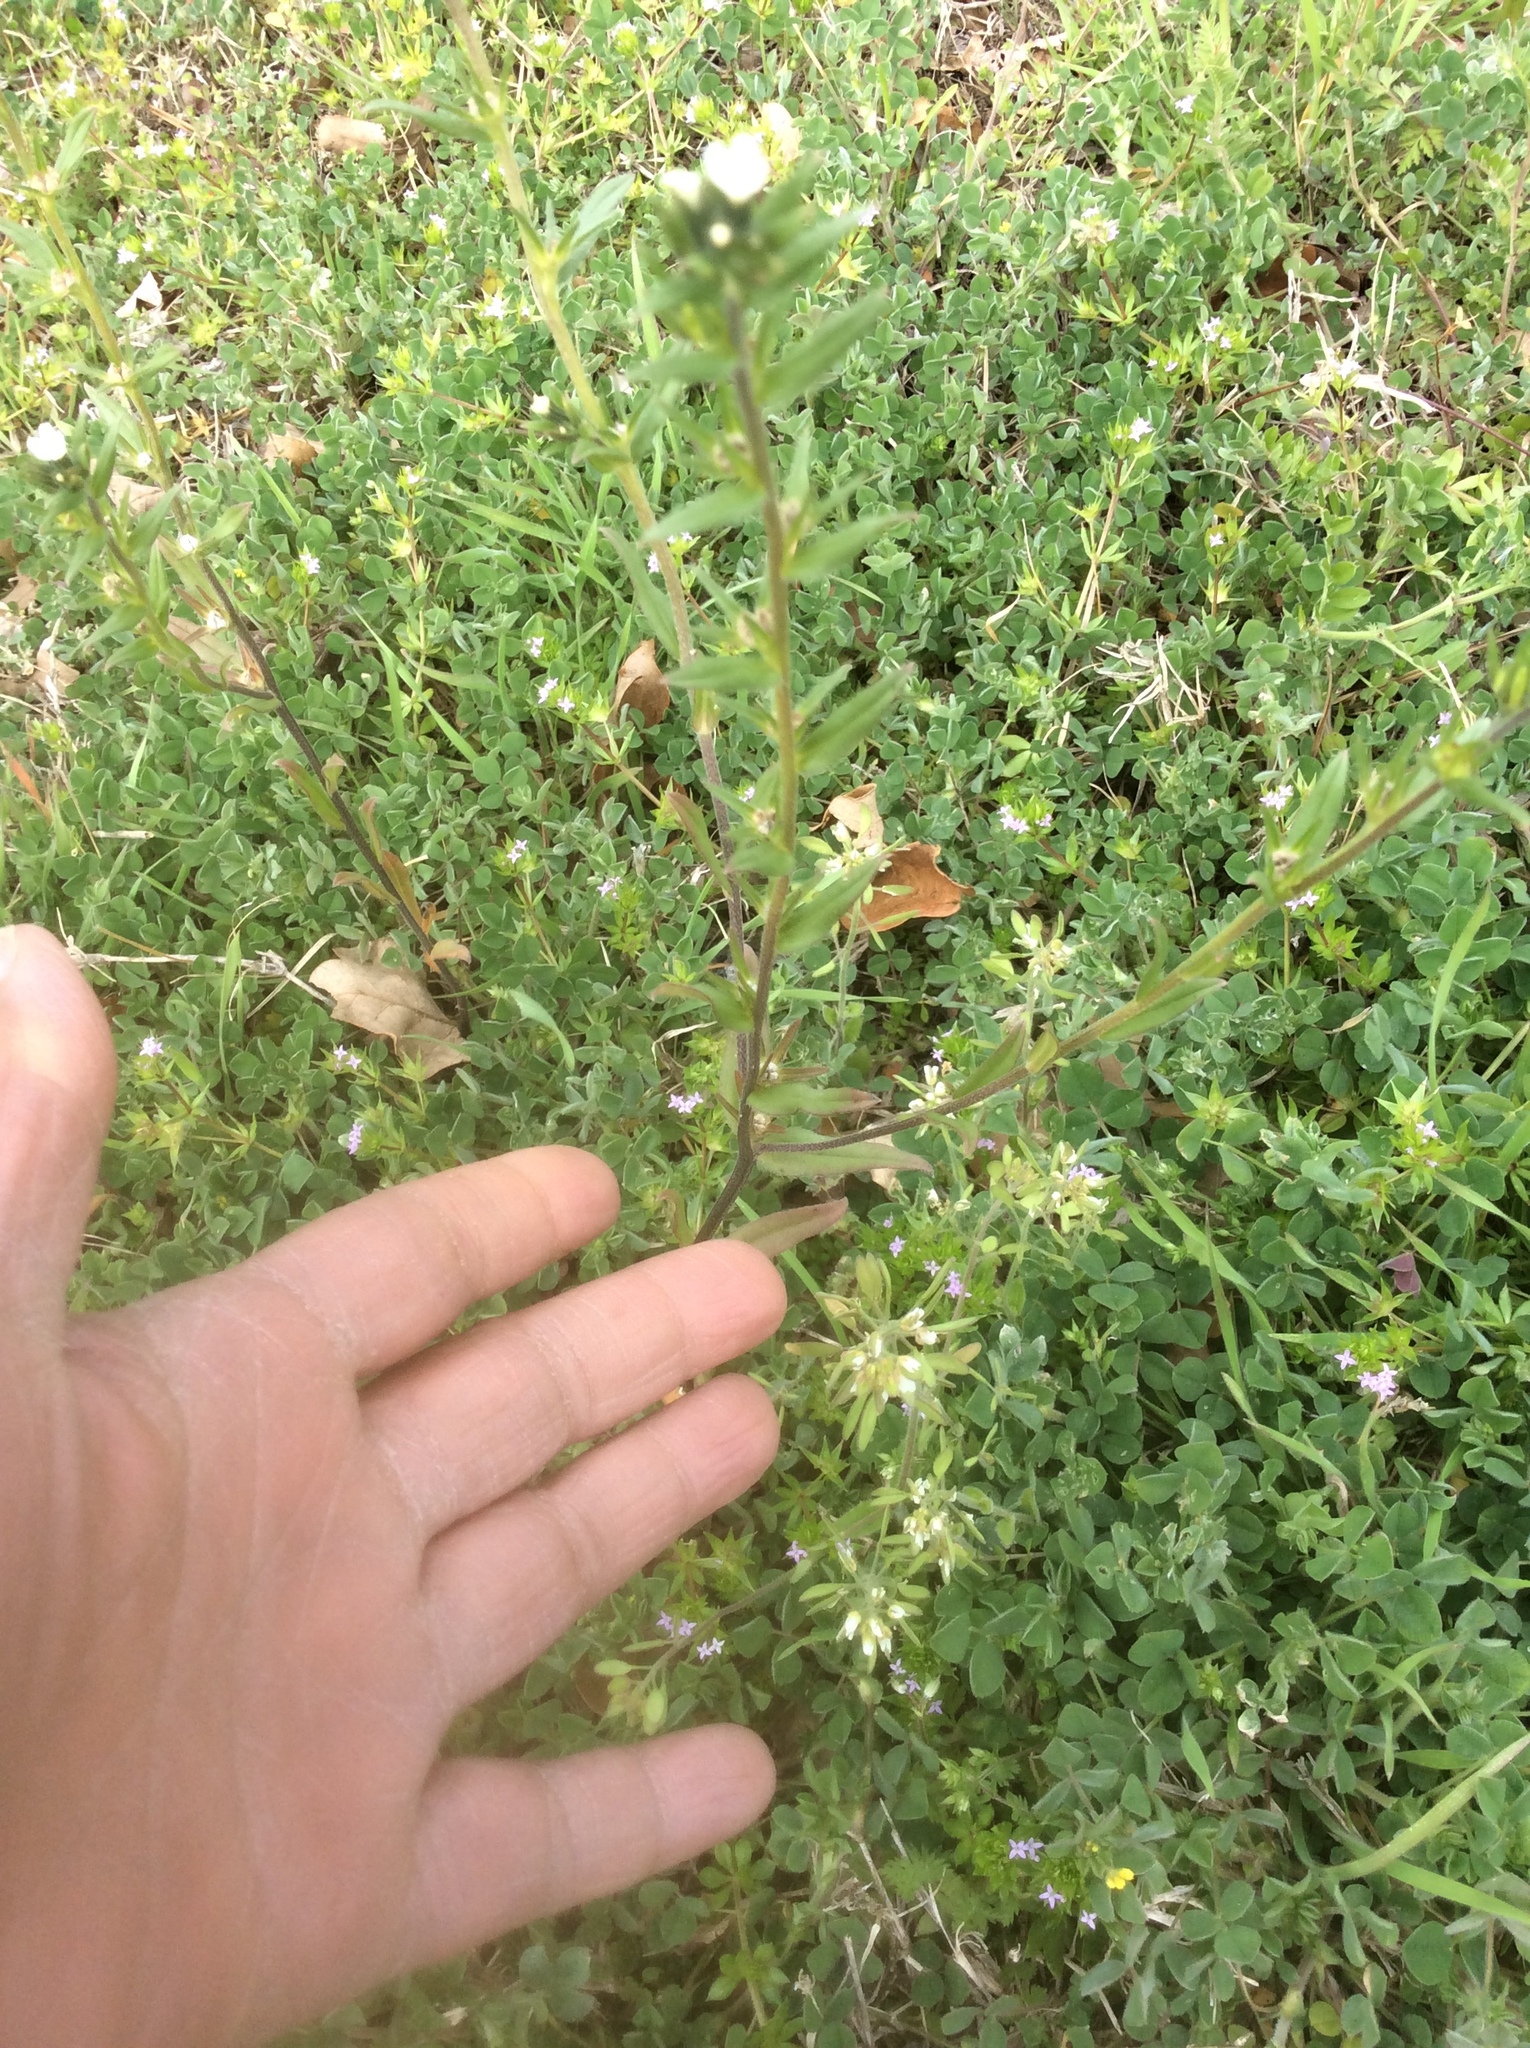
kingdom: Plantae
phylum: Tracheophyta
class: Magnoliopsida
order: Boraginales
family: Boraginaceae
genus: Buglossoides
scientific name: Buglossoides arvensis
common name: Corn gromwell
